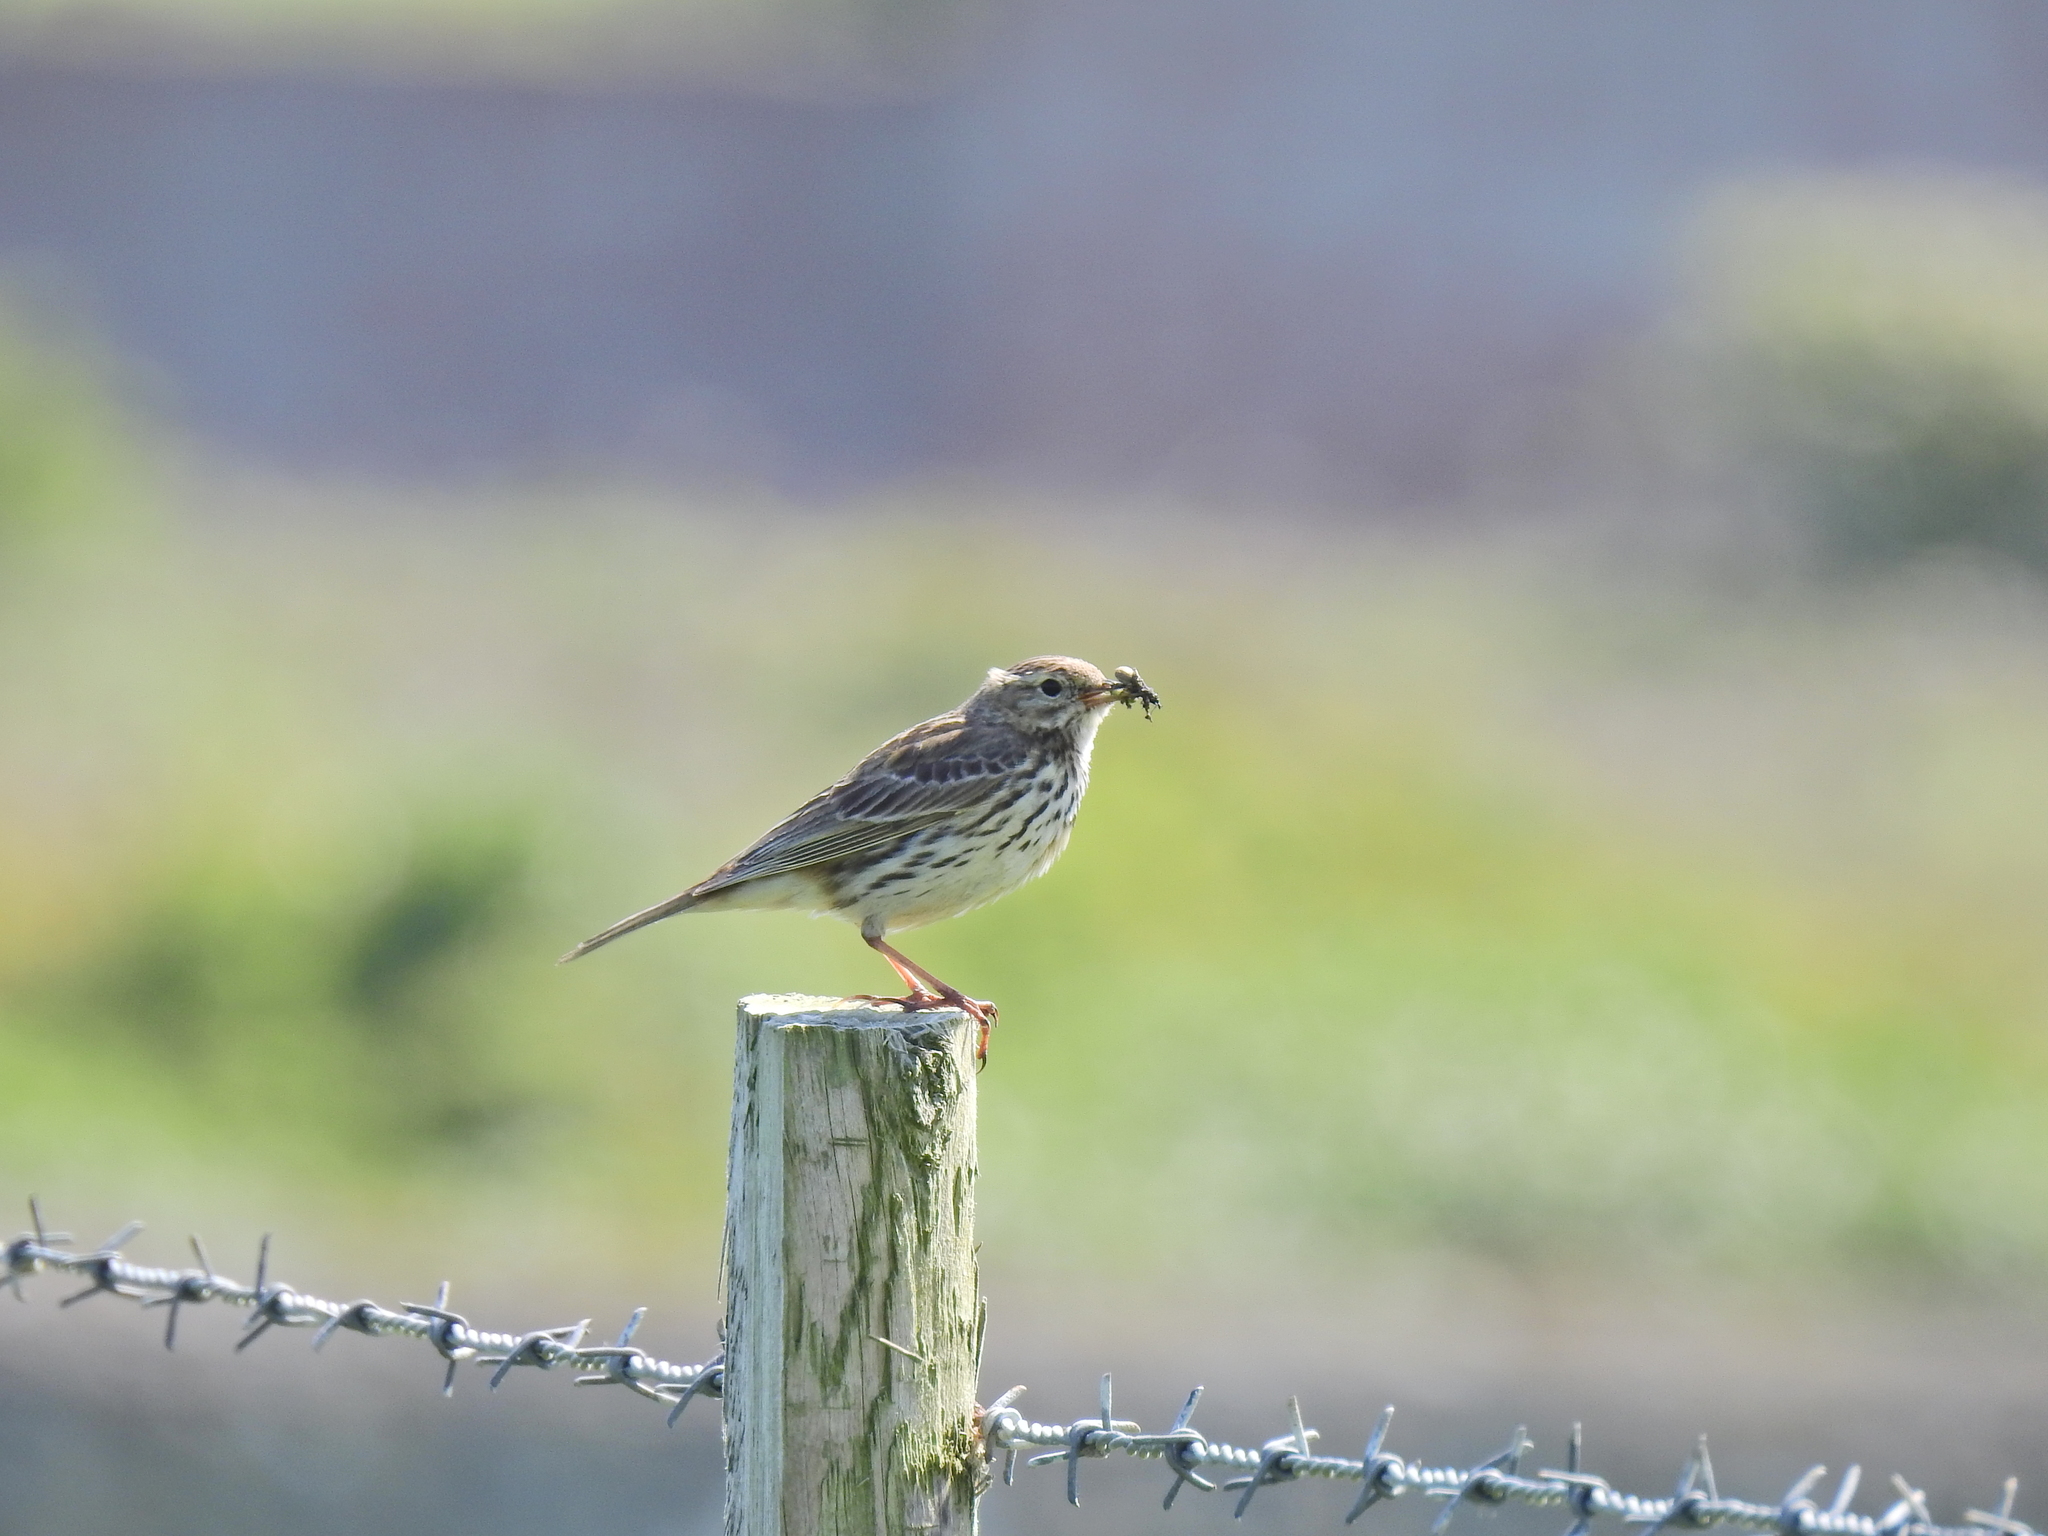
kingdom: Animalia
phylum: Chordata
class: Aves
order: Passeriformes
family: Motacillidae
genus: Anthus
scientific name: Anthus pratensis
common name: Meadow pipit
